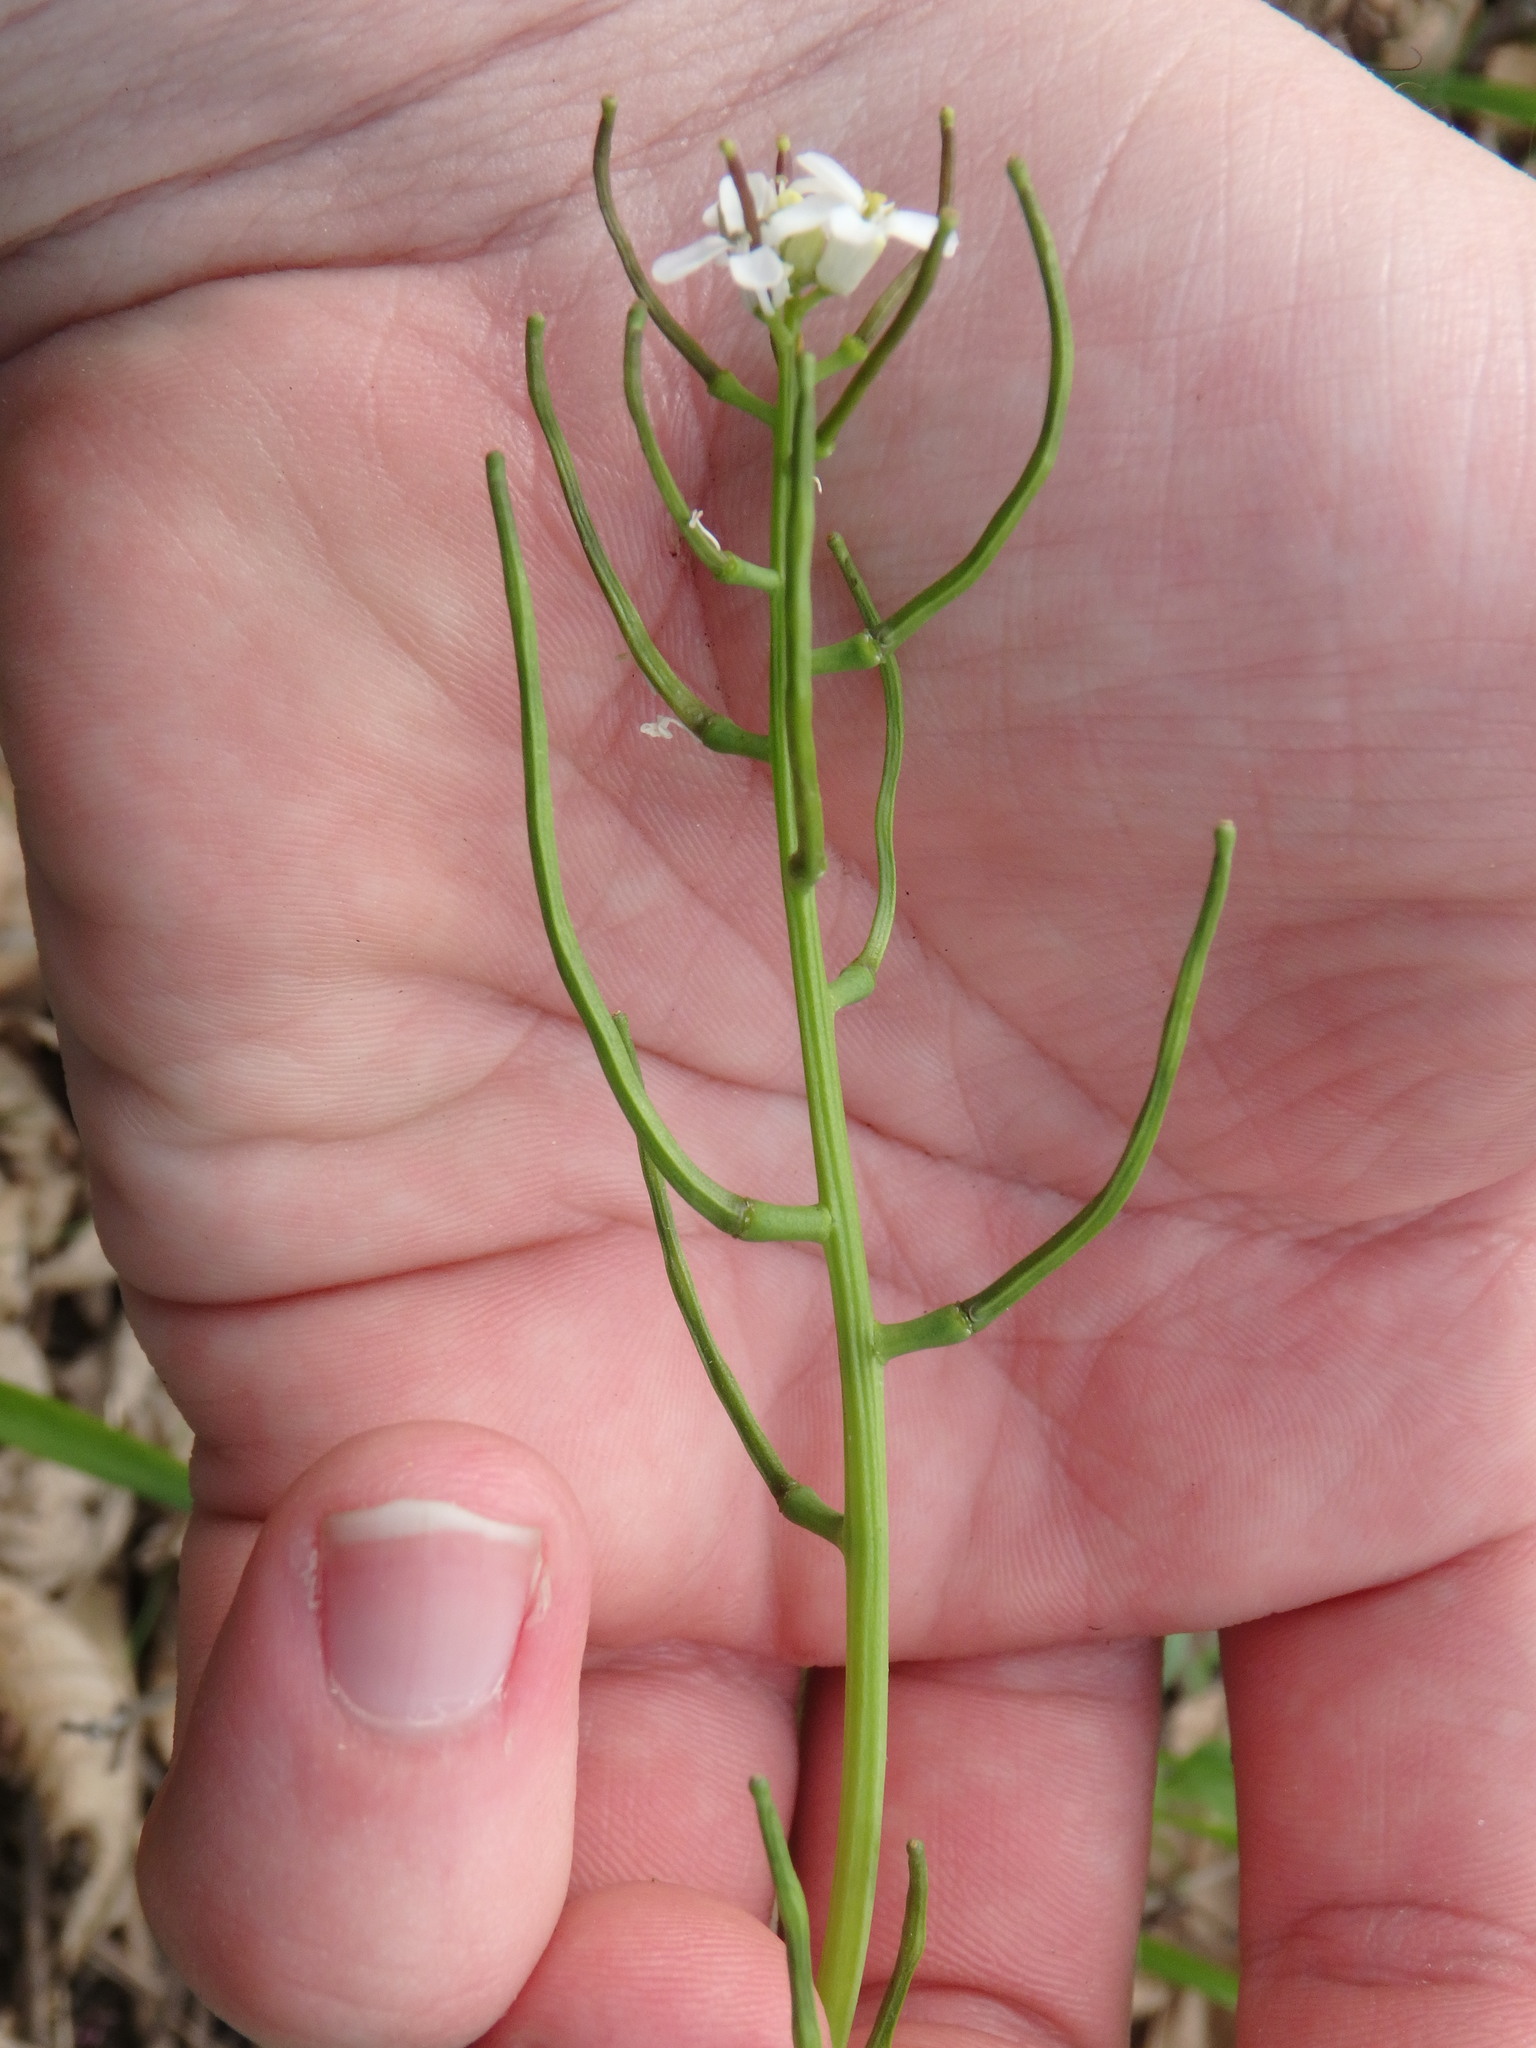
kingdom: Plantae
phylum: Tracheophyta
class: Magnoliopsida
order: Brassicales
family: Brassicaceae
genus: Alliaria
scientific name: Alliaria petiolata
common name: Garlic mustard
